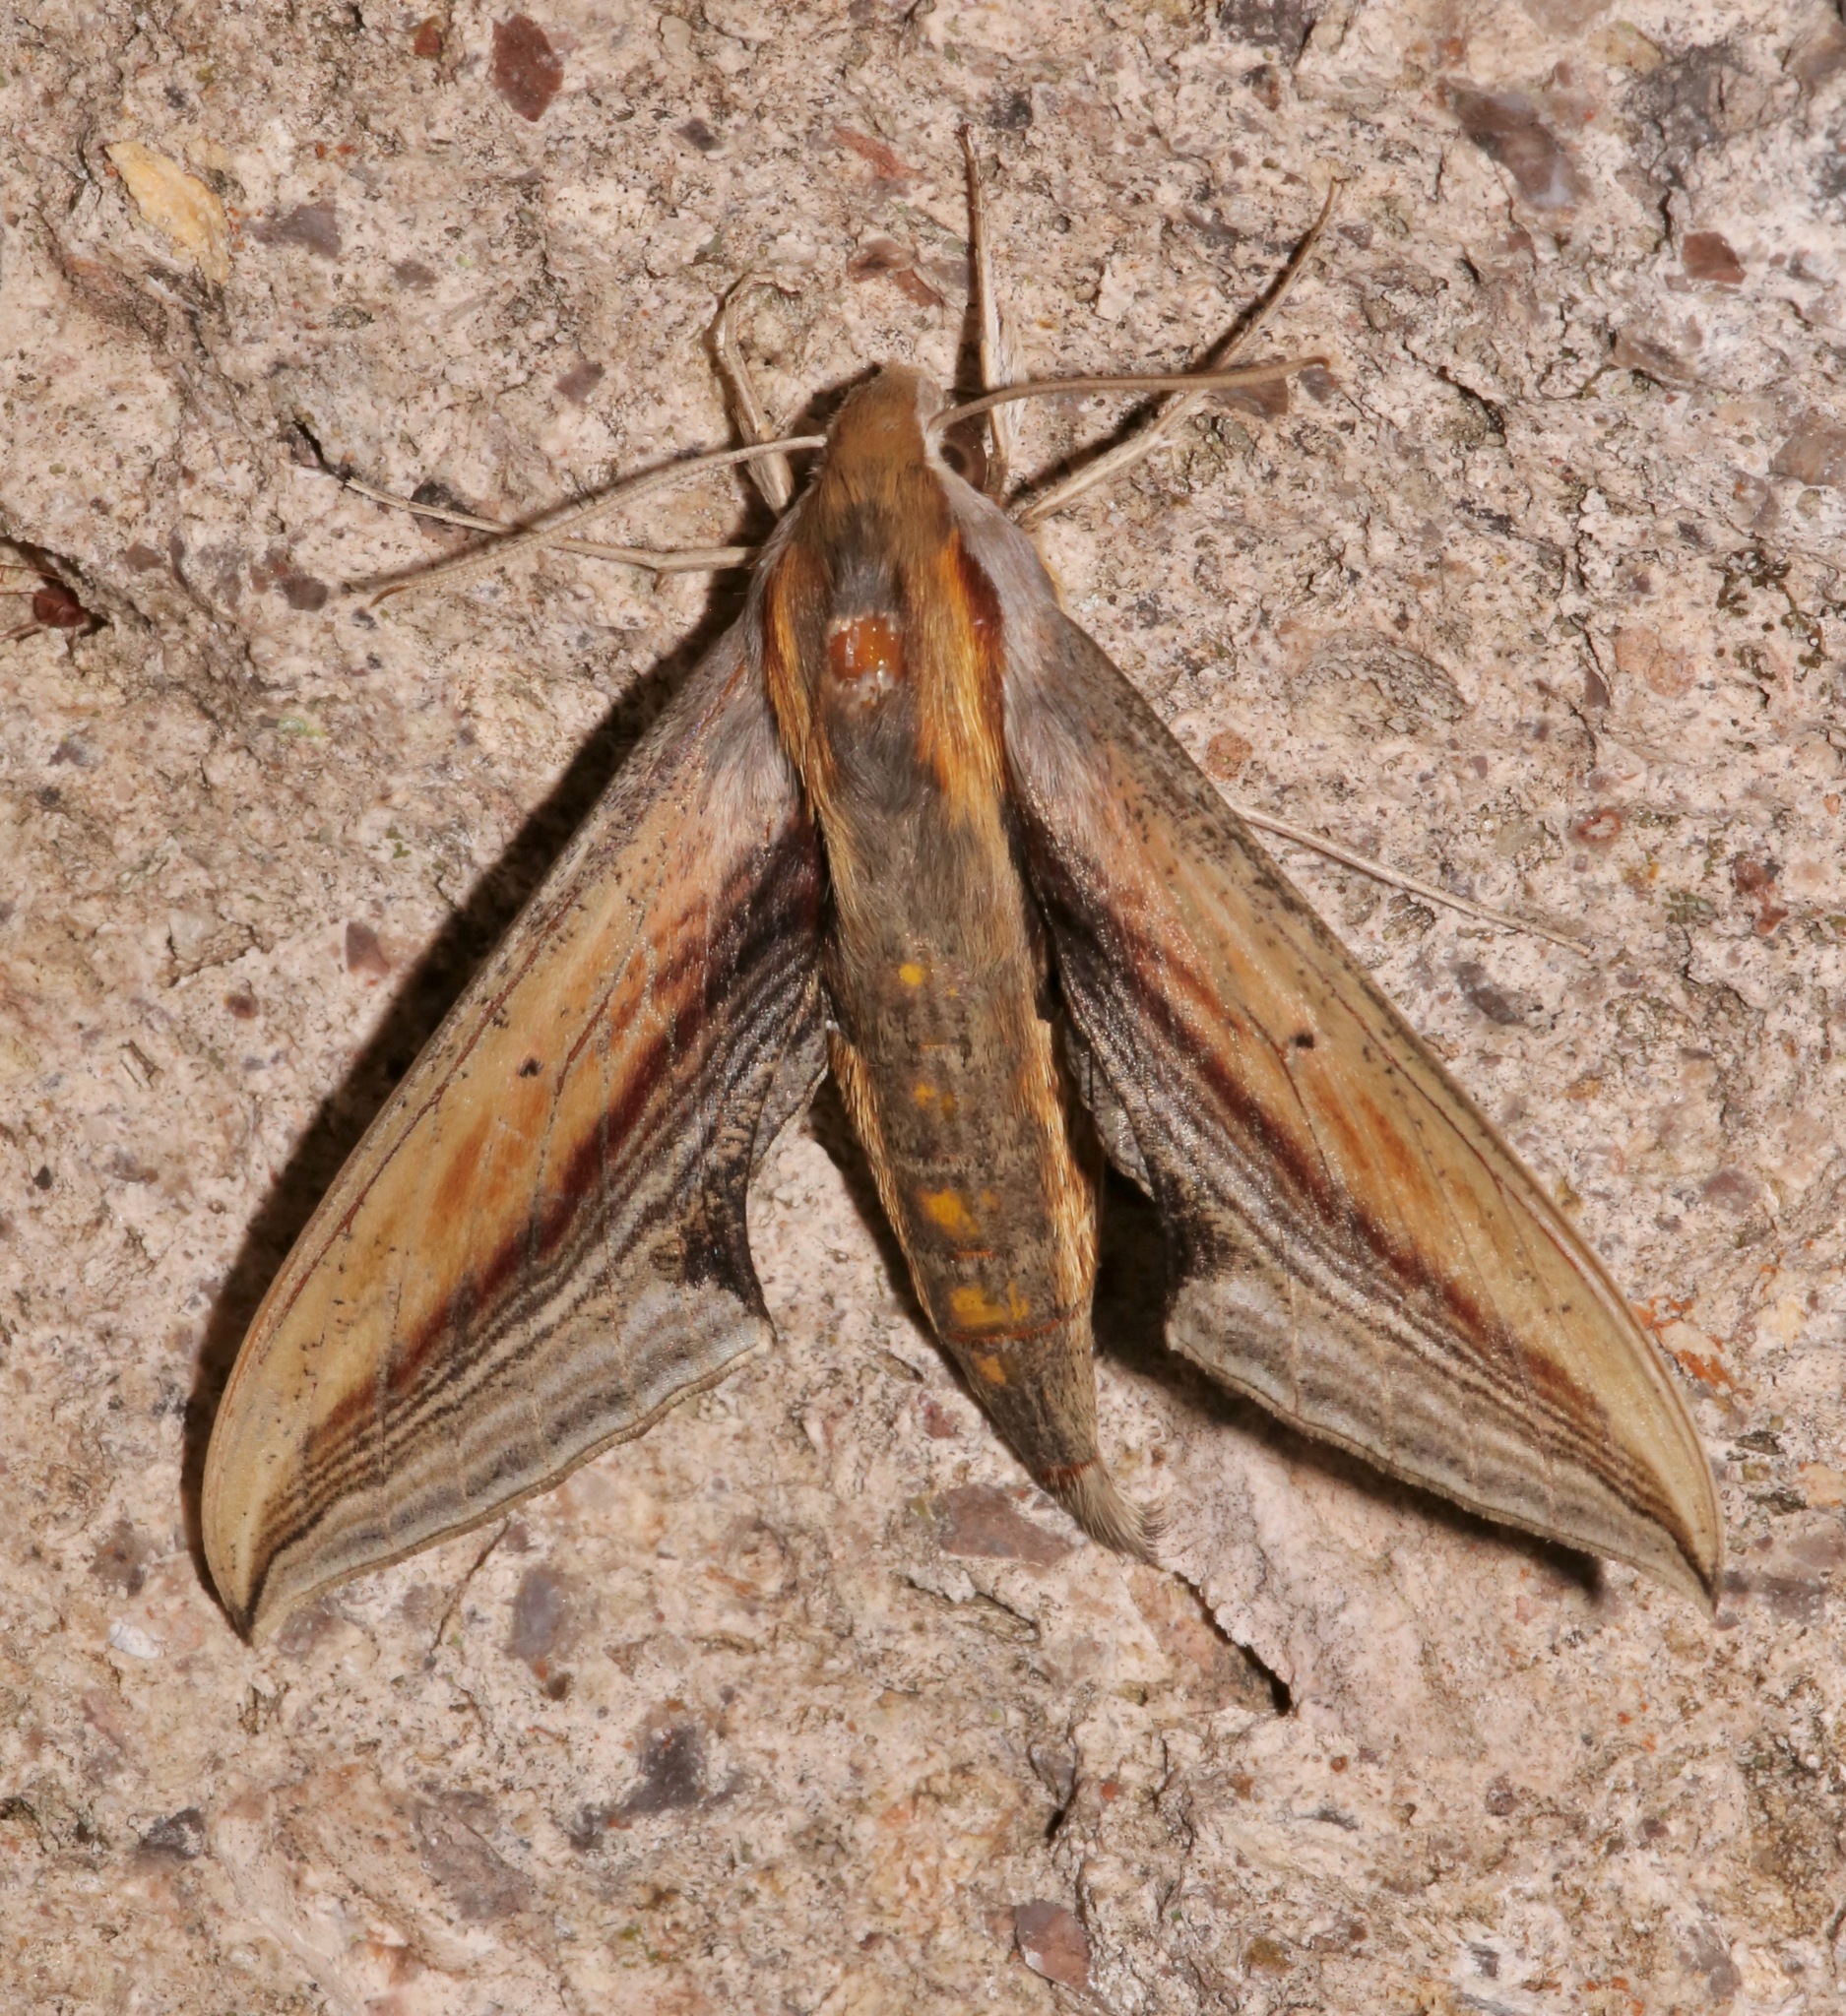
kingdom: Animalia
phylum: Arthropoda
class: Insecta
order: Lepidoptera
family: Sphingidae
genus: Xylophanes
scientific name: Xylophanes falco
